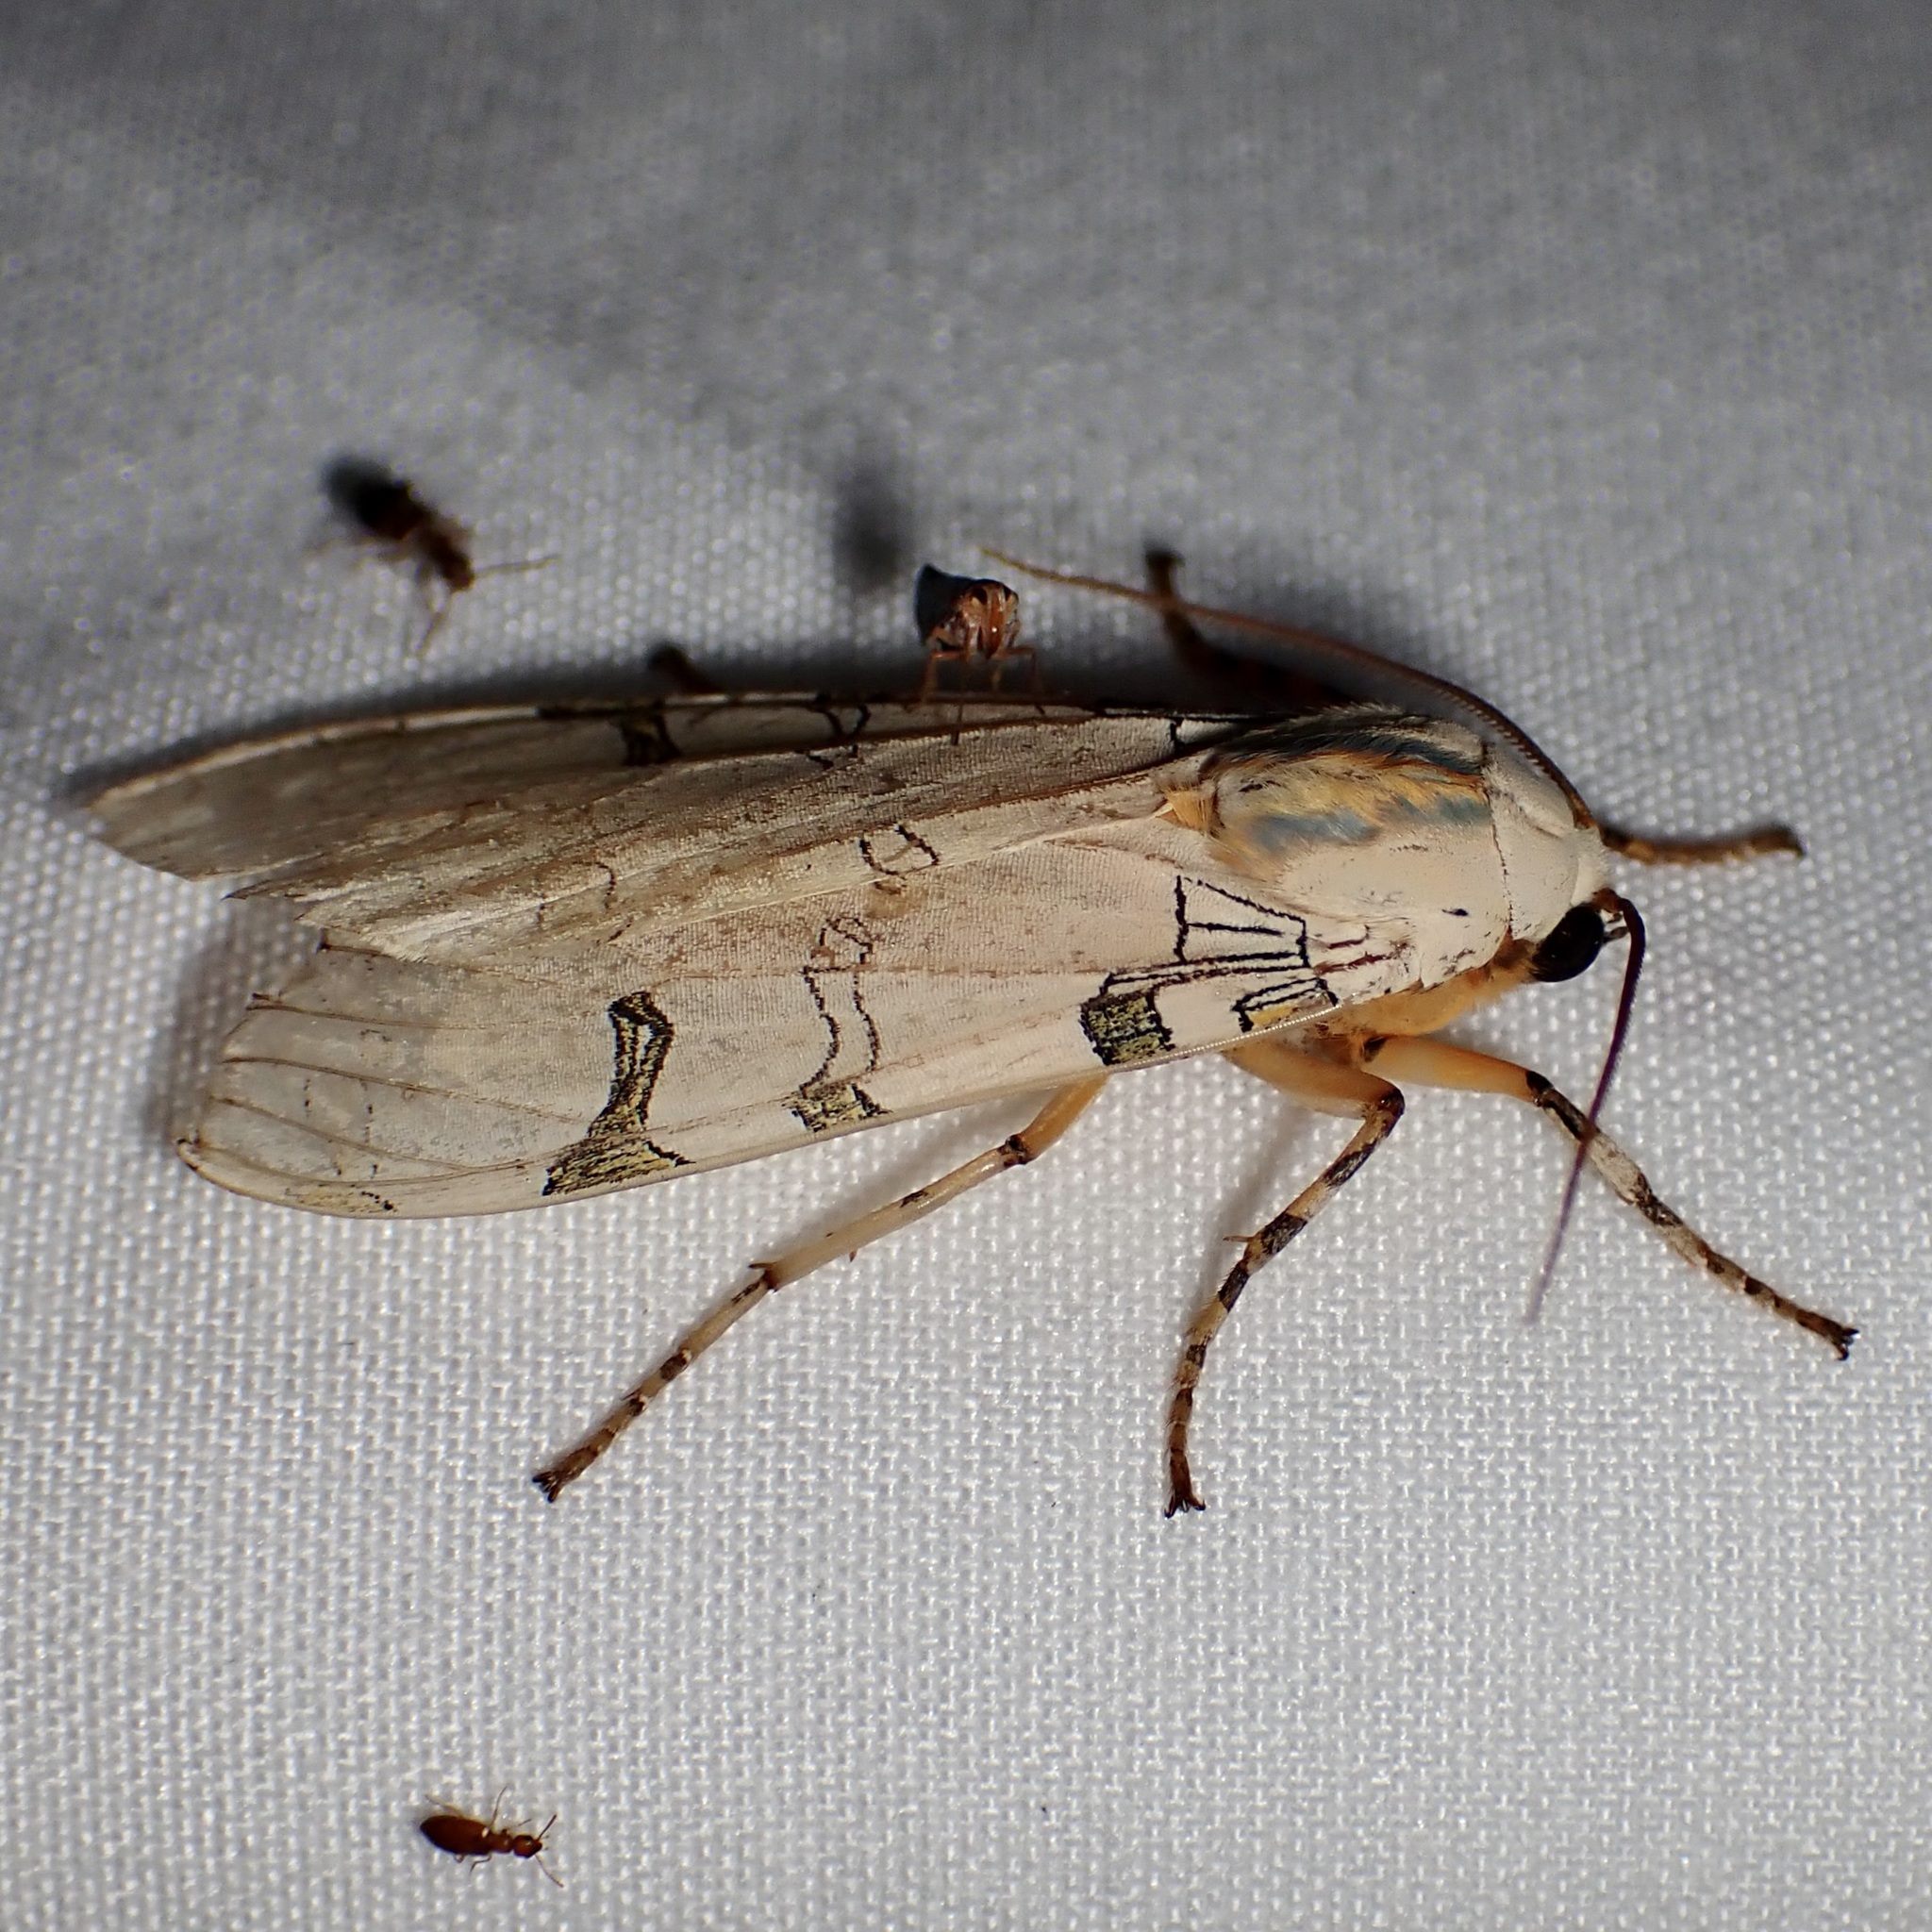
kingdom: Animalia
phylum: Arthropoda
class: Insecta
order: Lepidoptera
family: Erebidae
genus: Halysidota
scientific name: Halysidota davisii
